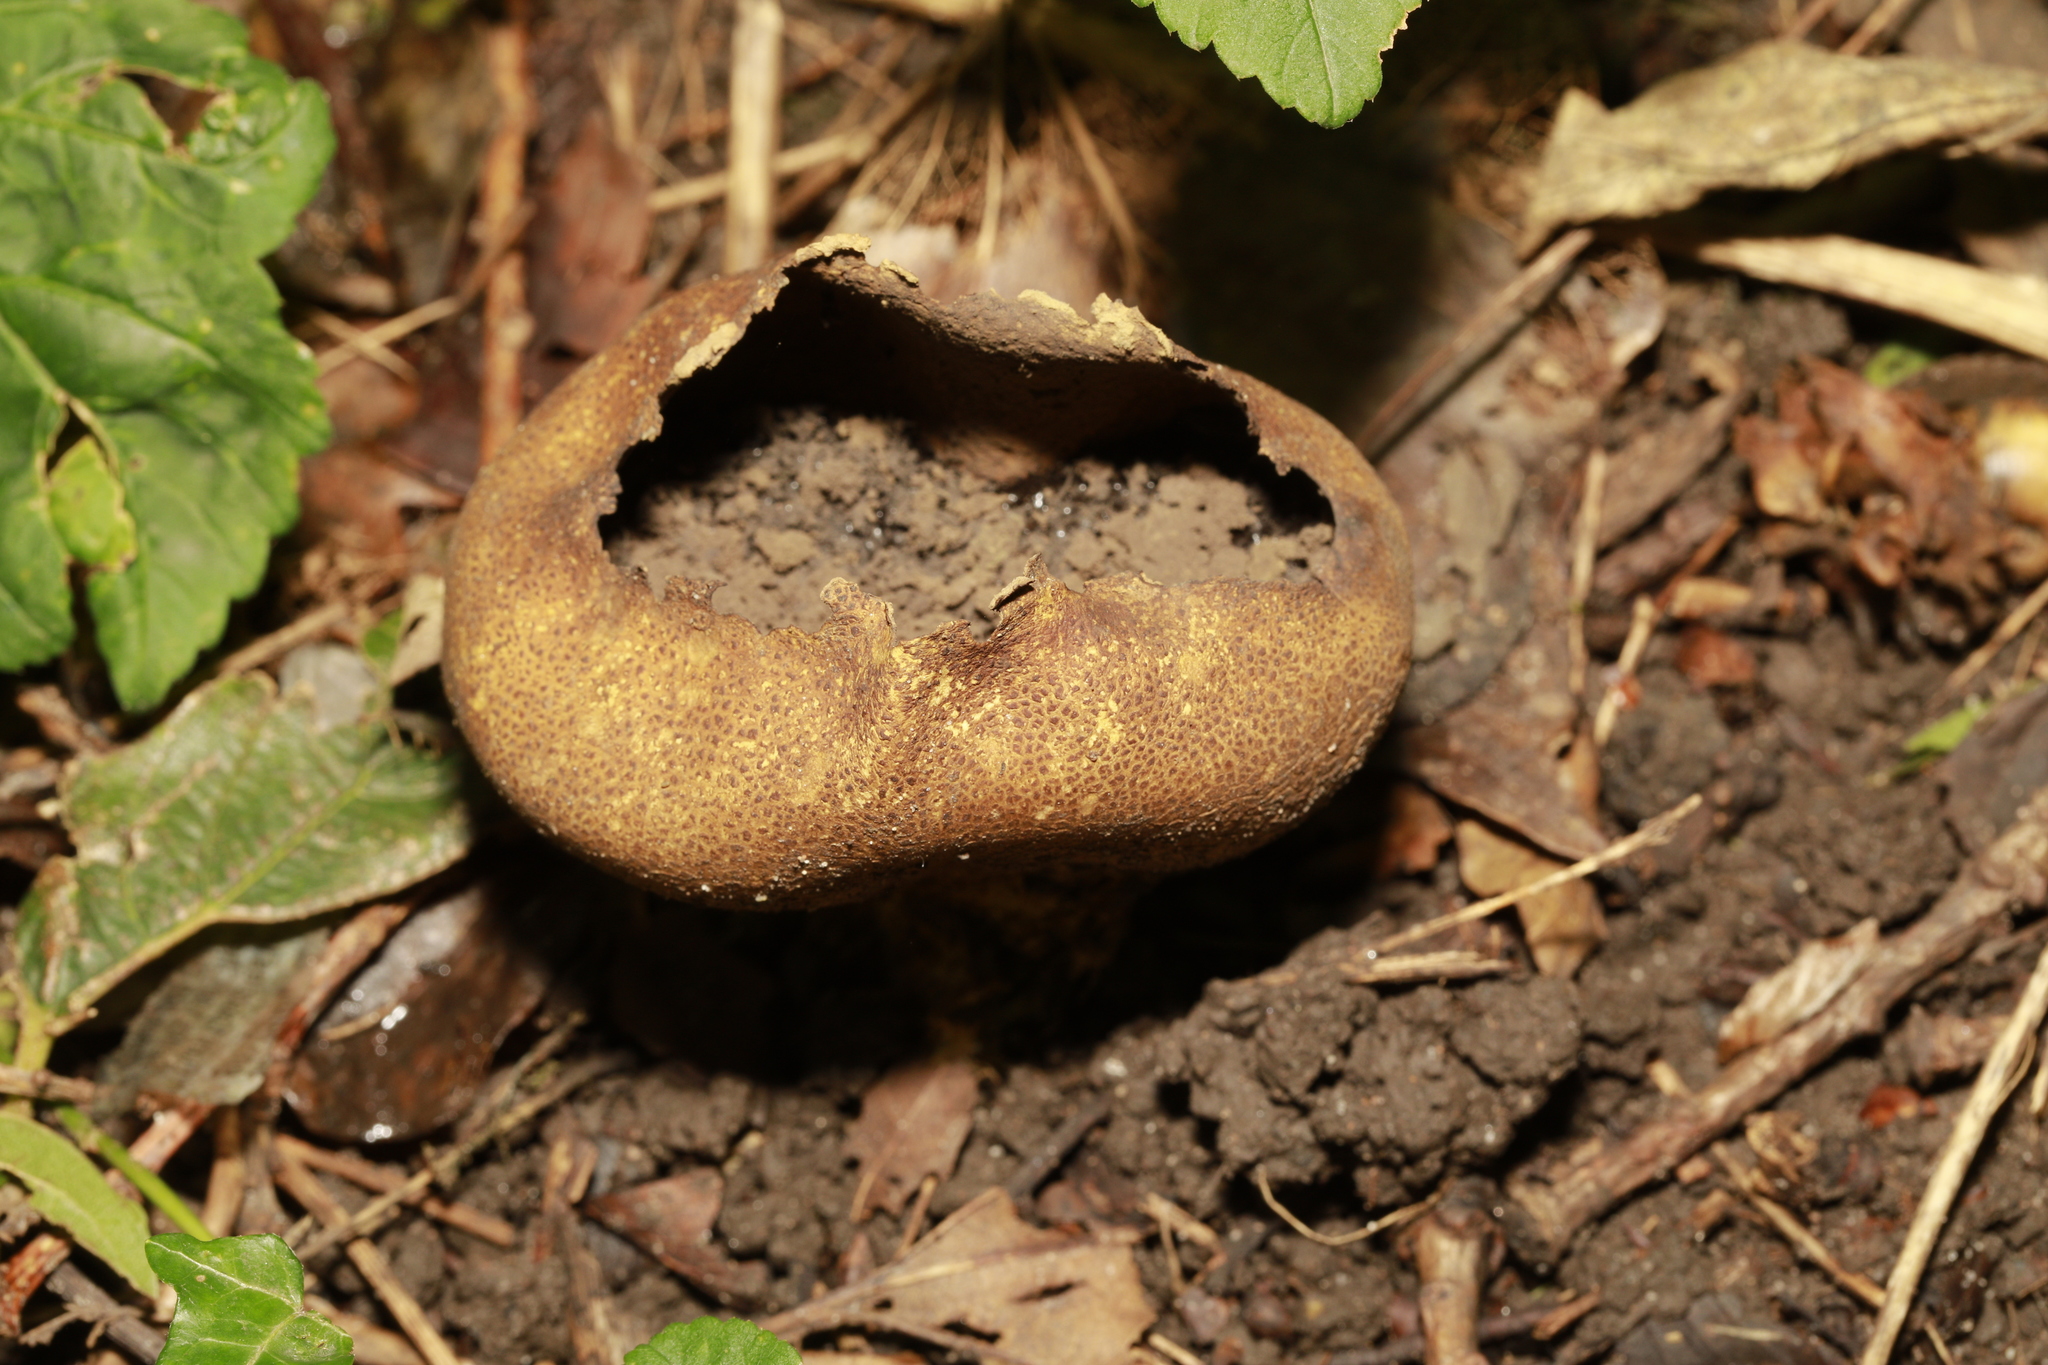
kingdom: Fungi
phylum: Basidiomycota
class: Agaricomycetes
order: Boletales
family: Sclerodermataceae
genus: Scleroderma
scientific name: Scleroderma citrinum
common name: Common earthball
